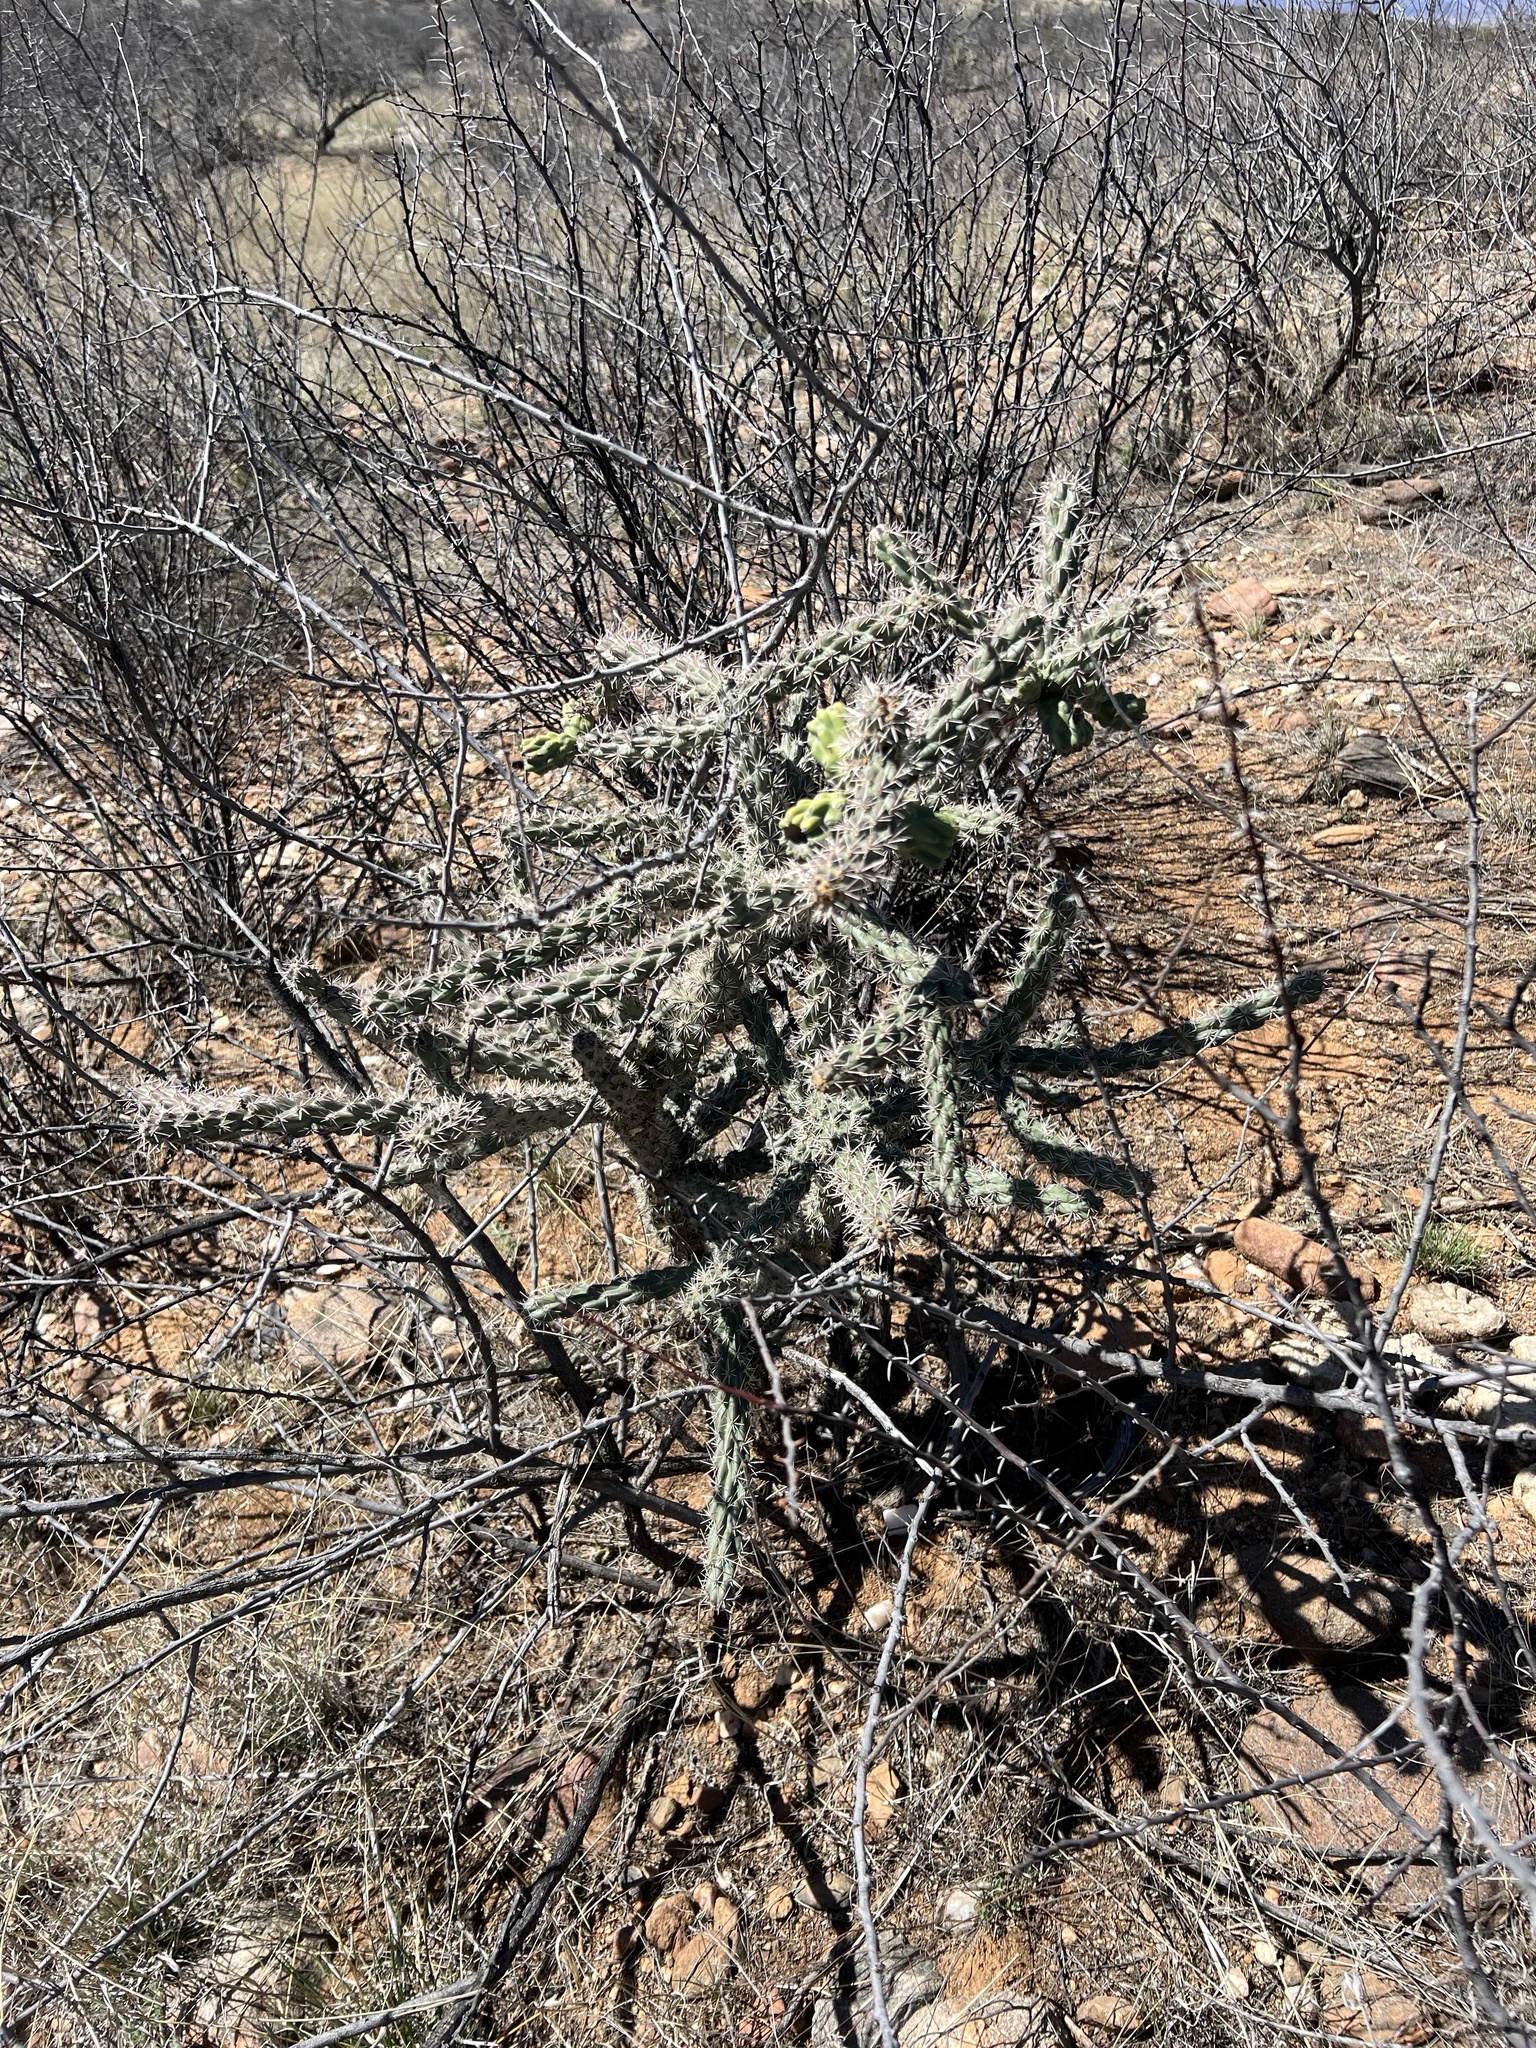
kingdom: Plantae
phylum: Tracheophyta
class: Magnoliopsida
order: Caryophyllales
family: Cactaceae
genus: Cylindropuntia
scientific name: Cylindropuntia imbricata
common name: Candelabrum cactus
